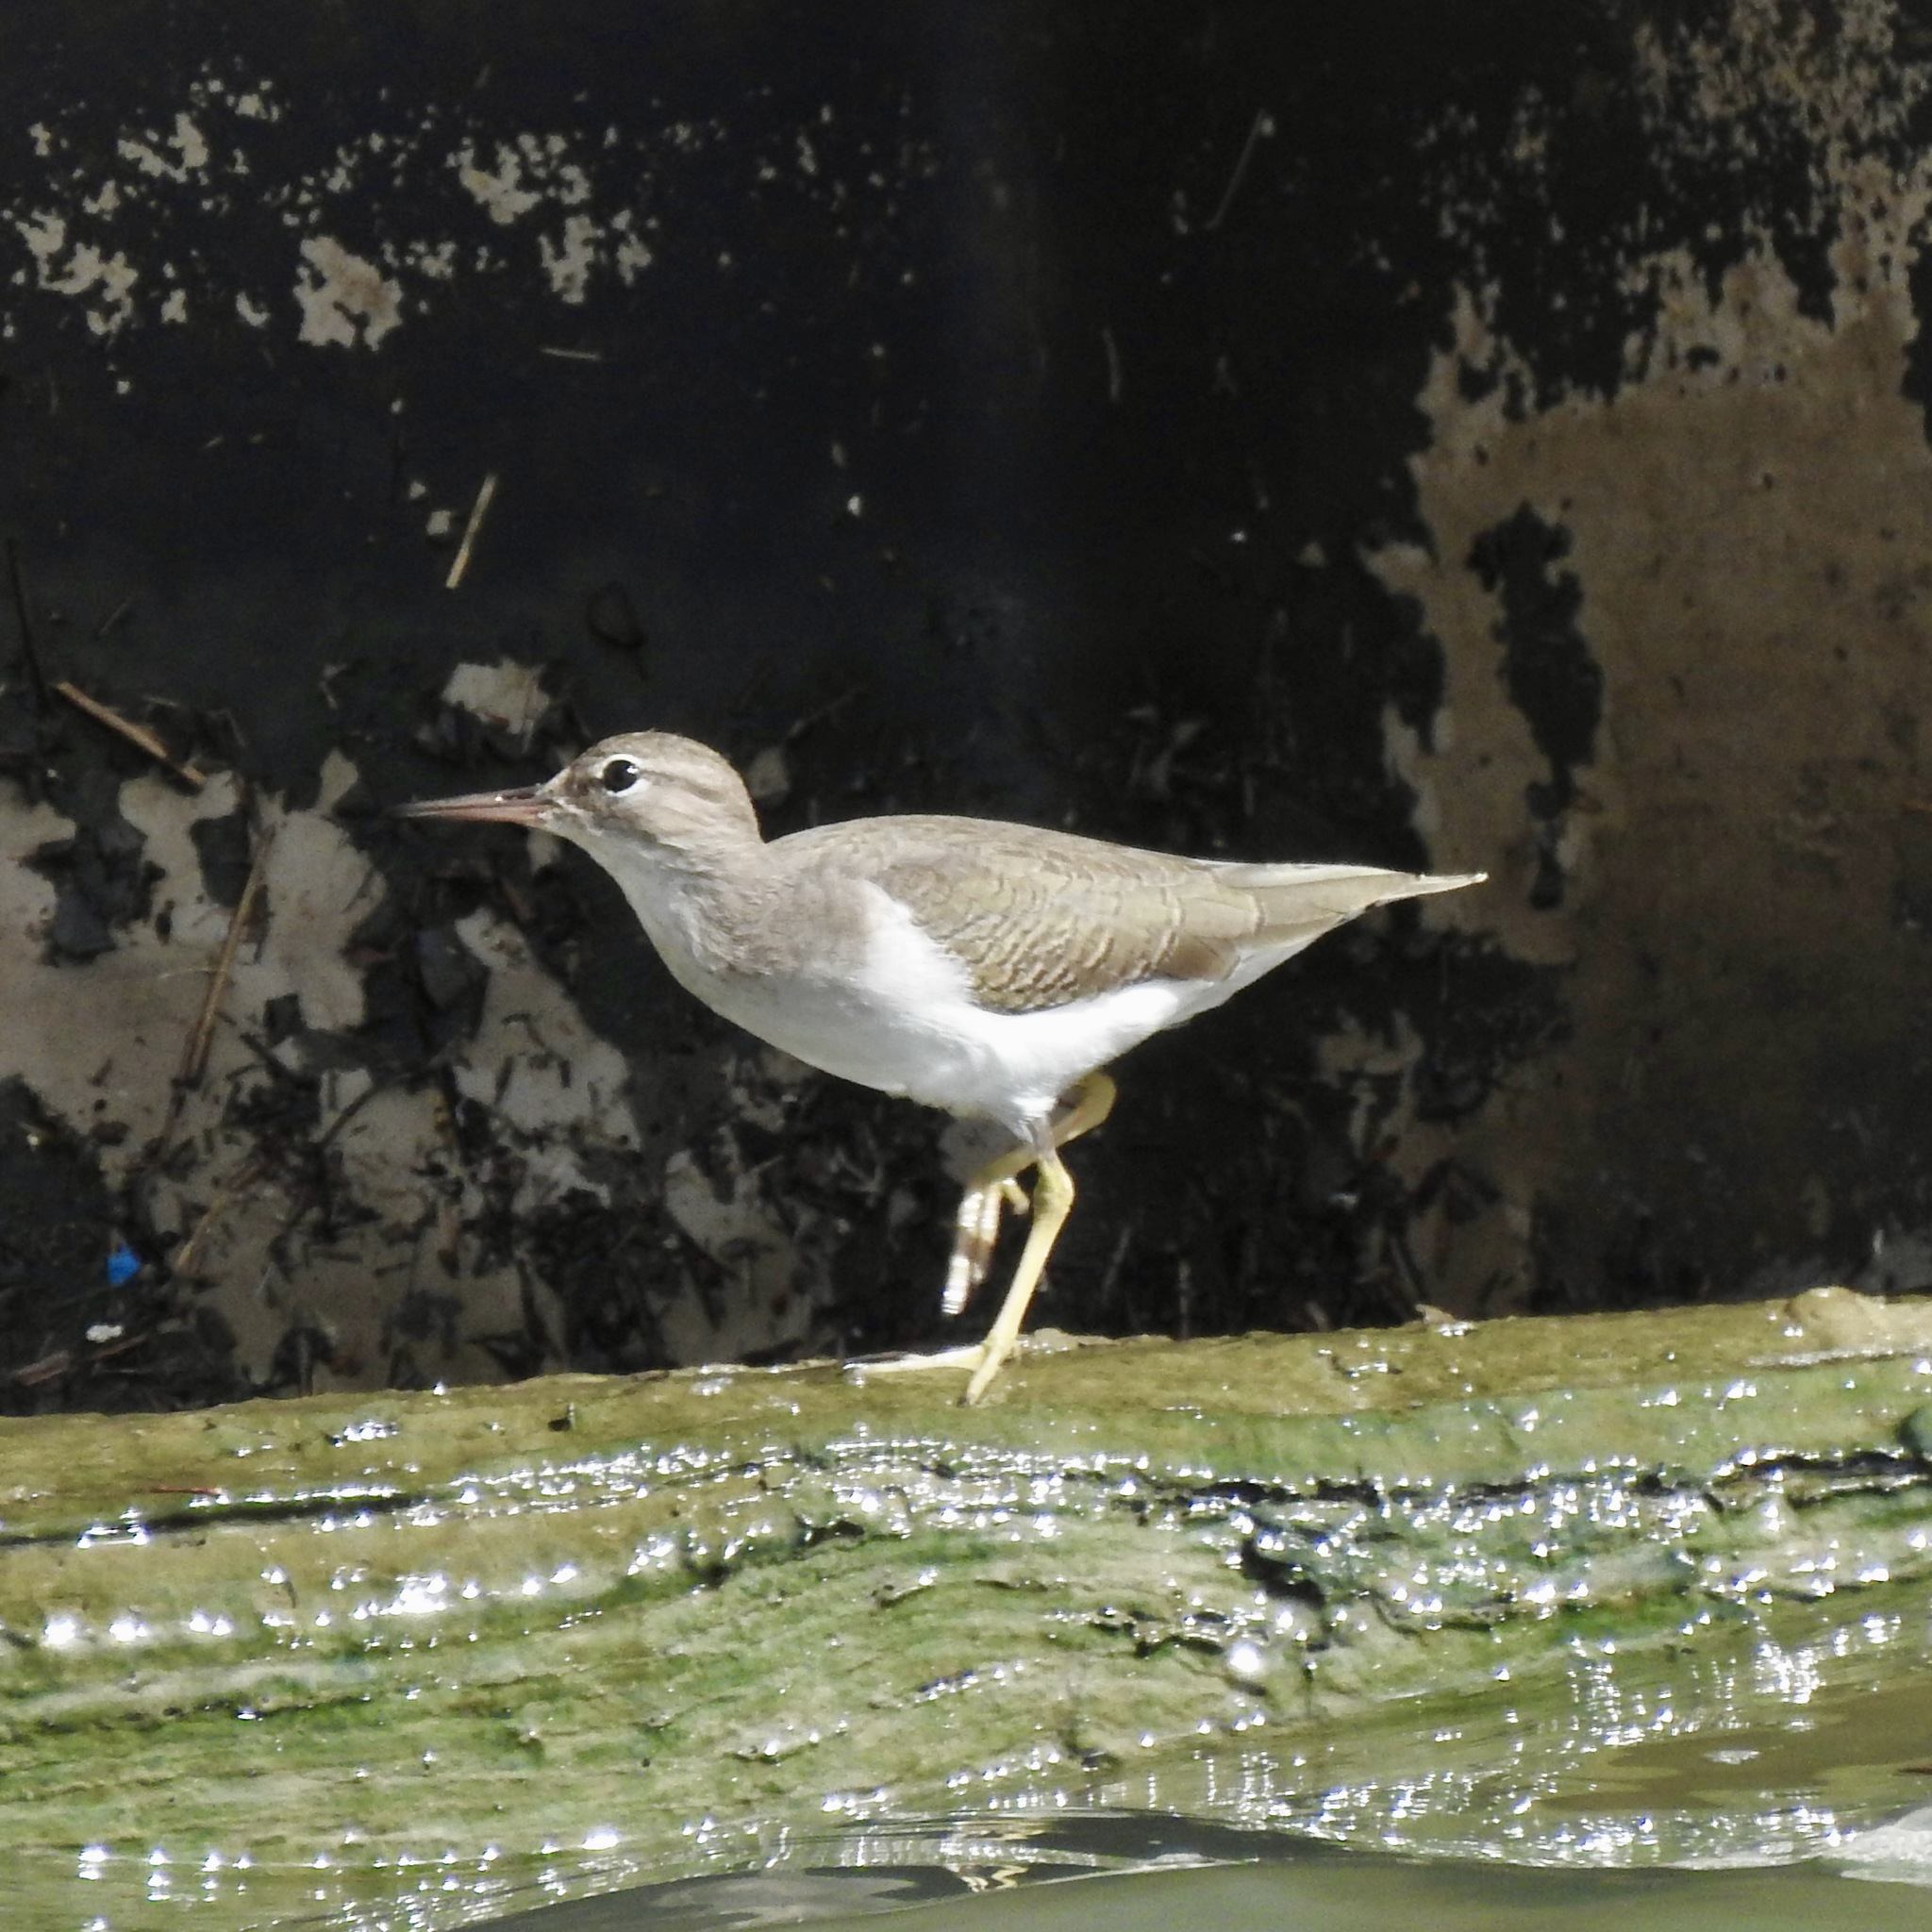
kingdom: Animalia
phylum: Chordata
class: Aves
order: Charadriiformes
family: Scolopacidae
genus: Actitis
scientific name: Actitis macularius
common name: Spotted sandpiper
